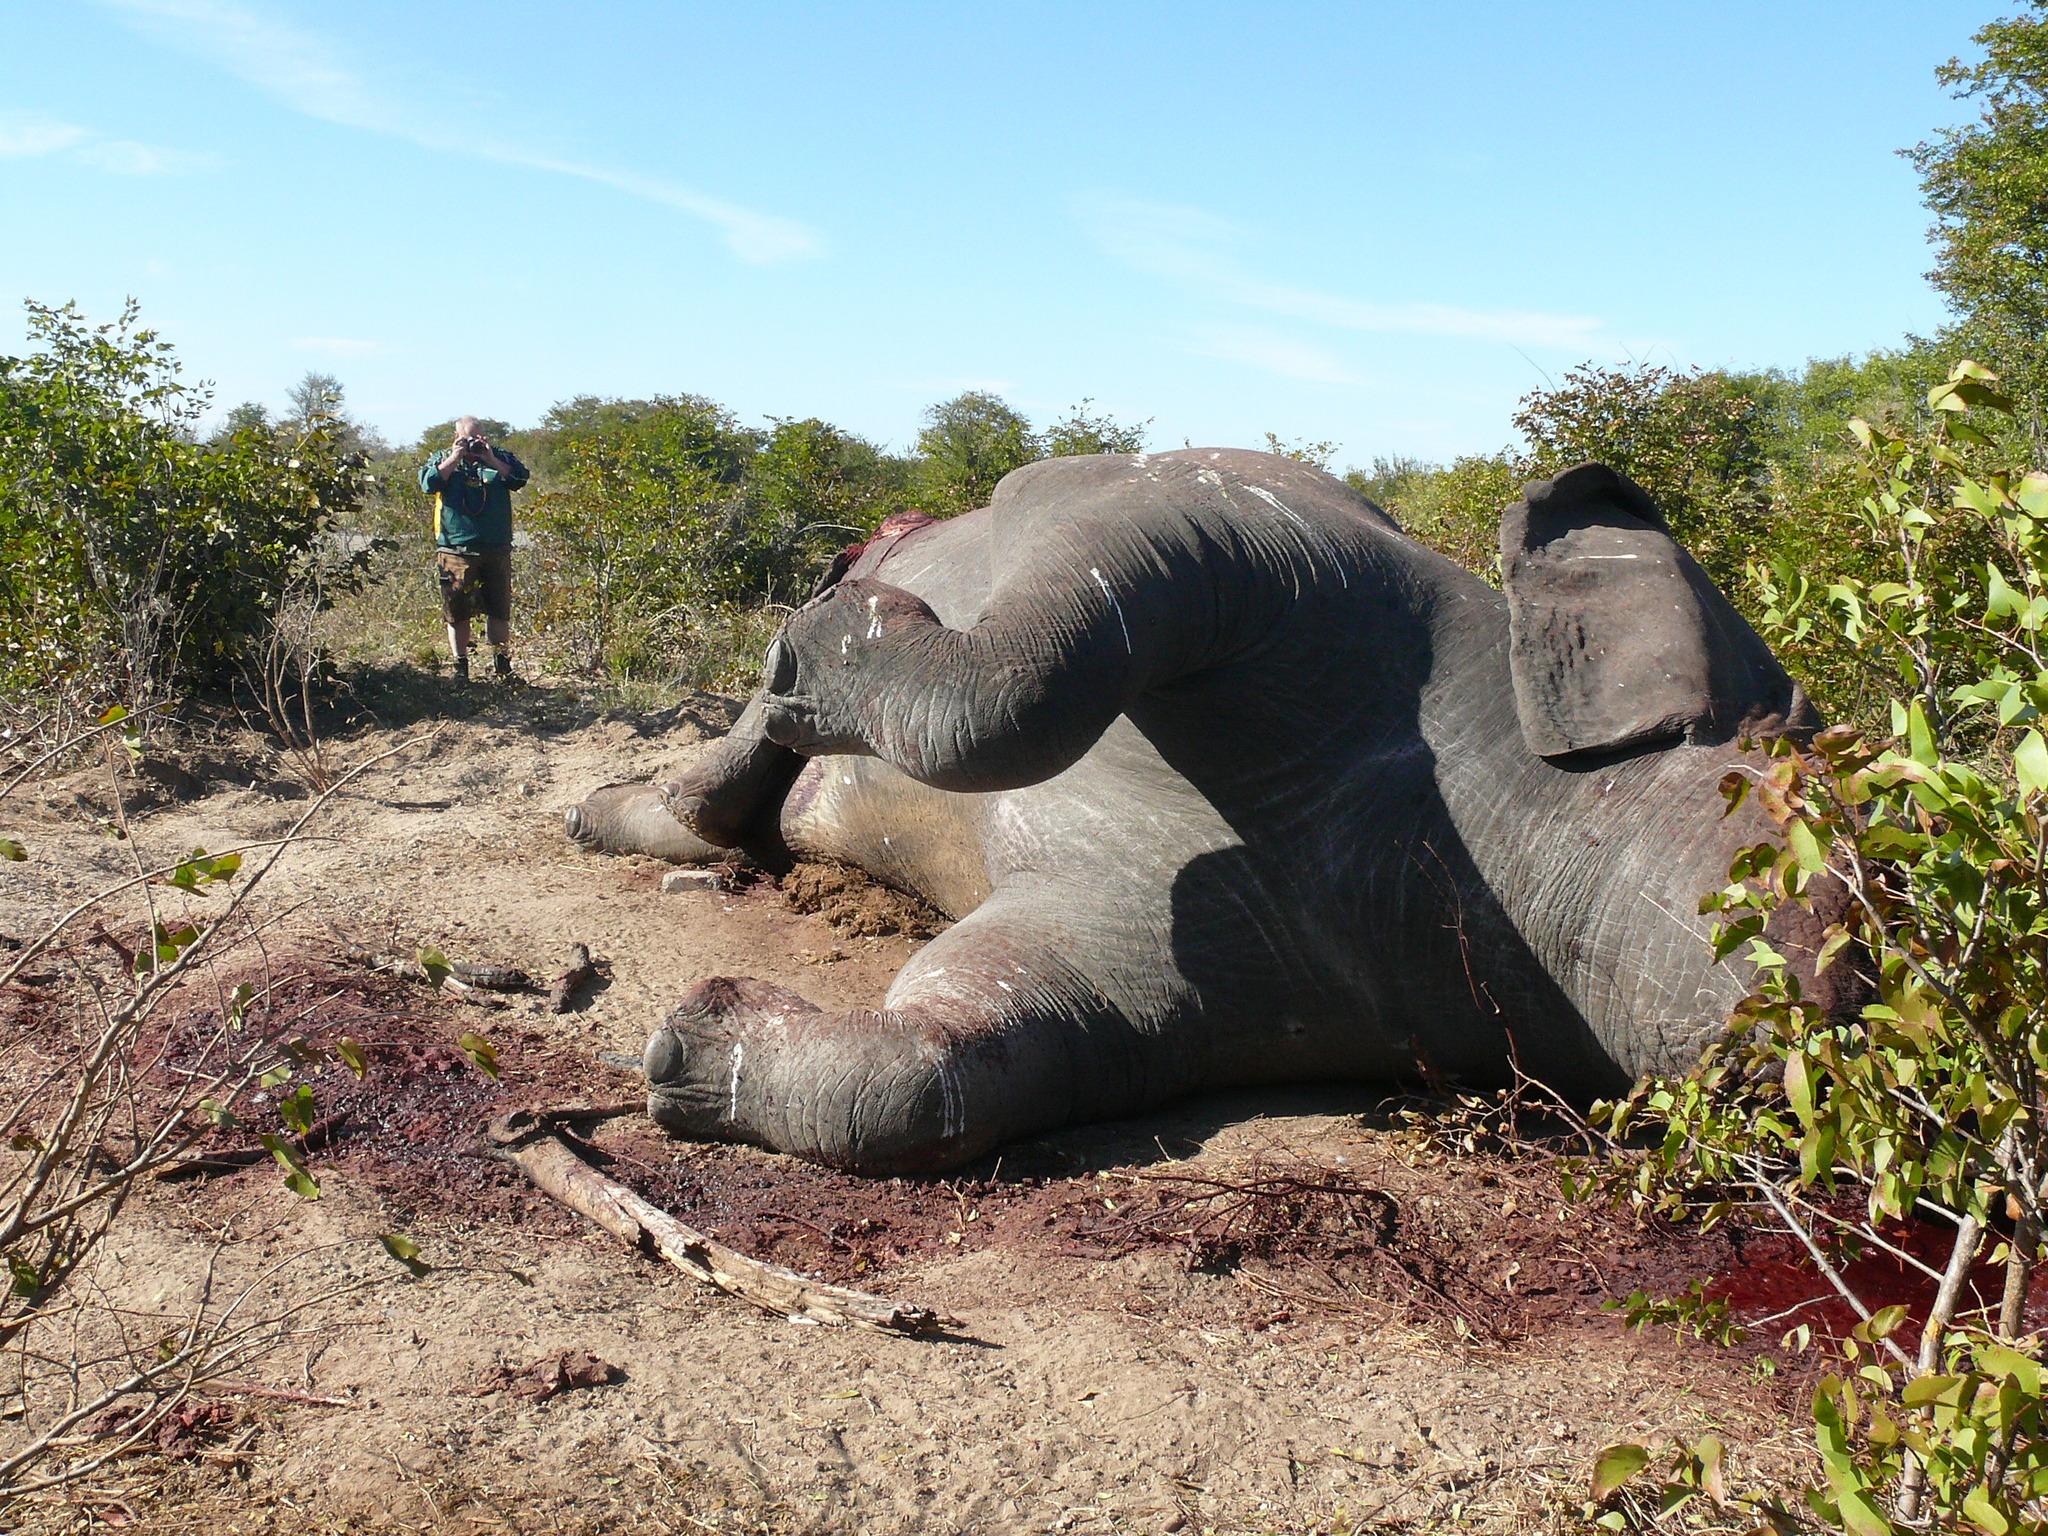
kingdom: Animalia
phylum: Chordata
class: Mammalia
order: Proboscidea
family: Elephantidae
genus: Loxodonta
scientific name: Loxodonta africana
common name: African elephant
